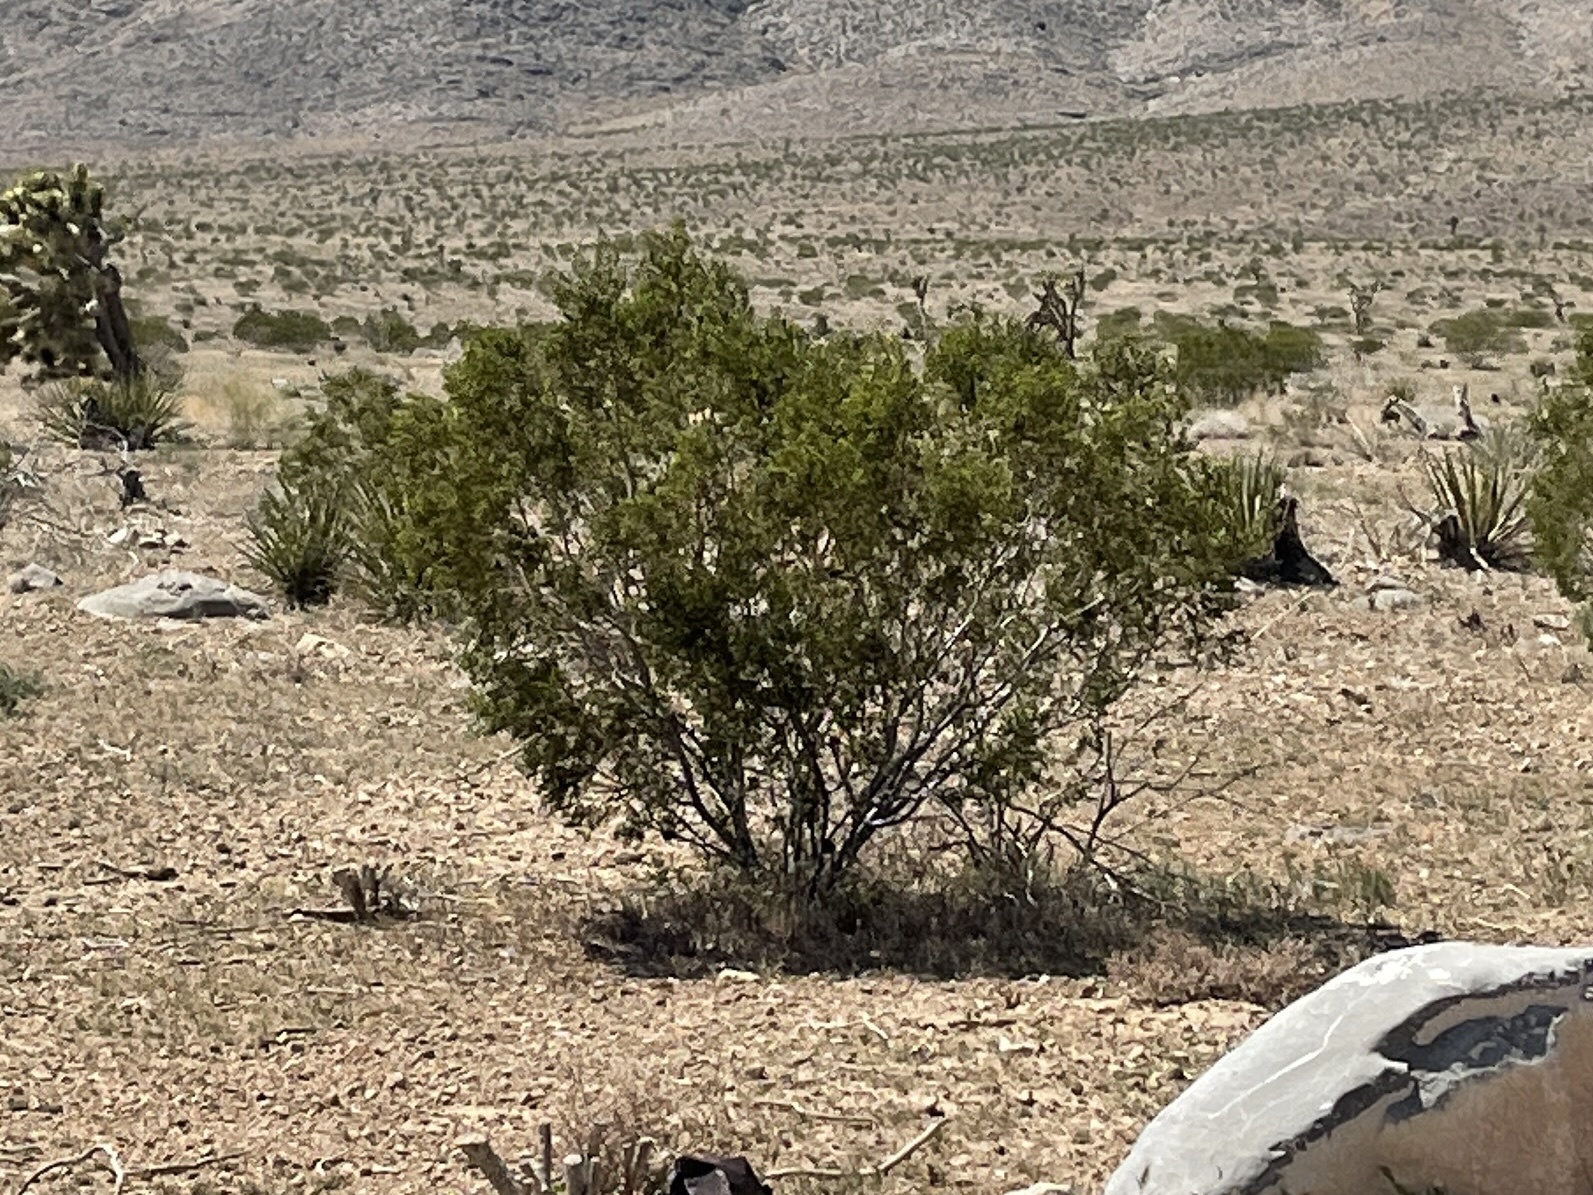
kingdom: Plantae
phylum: Tracheophyta
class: Magnoliopsida
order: Zygophyllales
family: Zygophyllaceae
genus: Larrea
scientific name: Larrea tridentata
